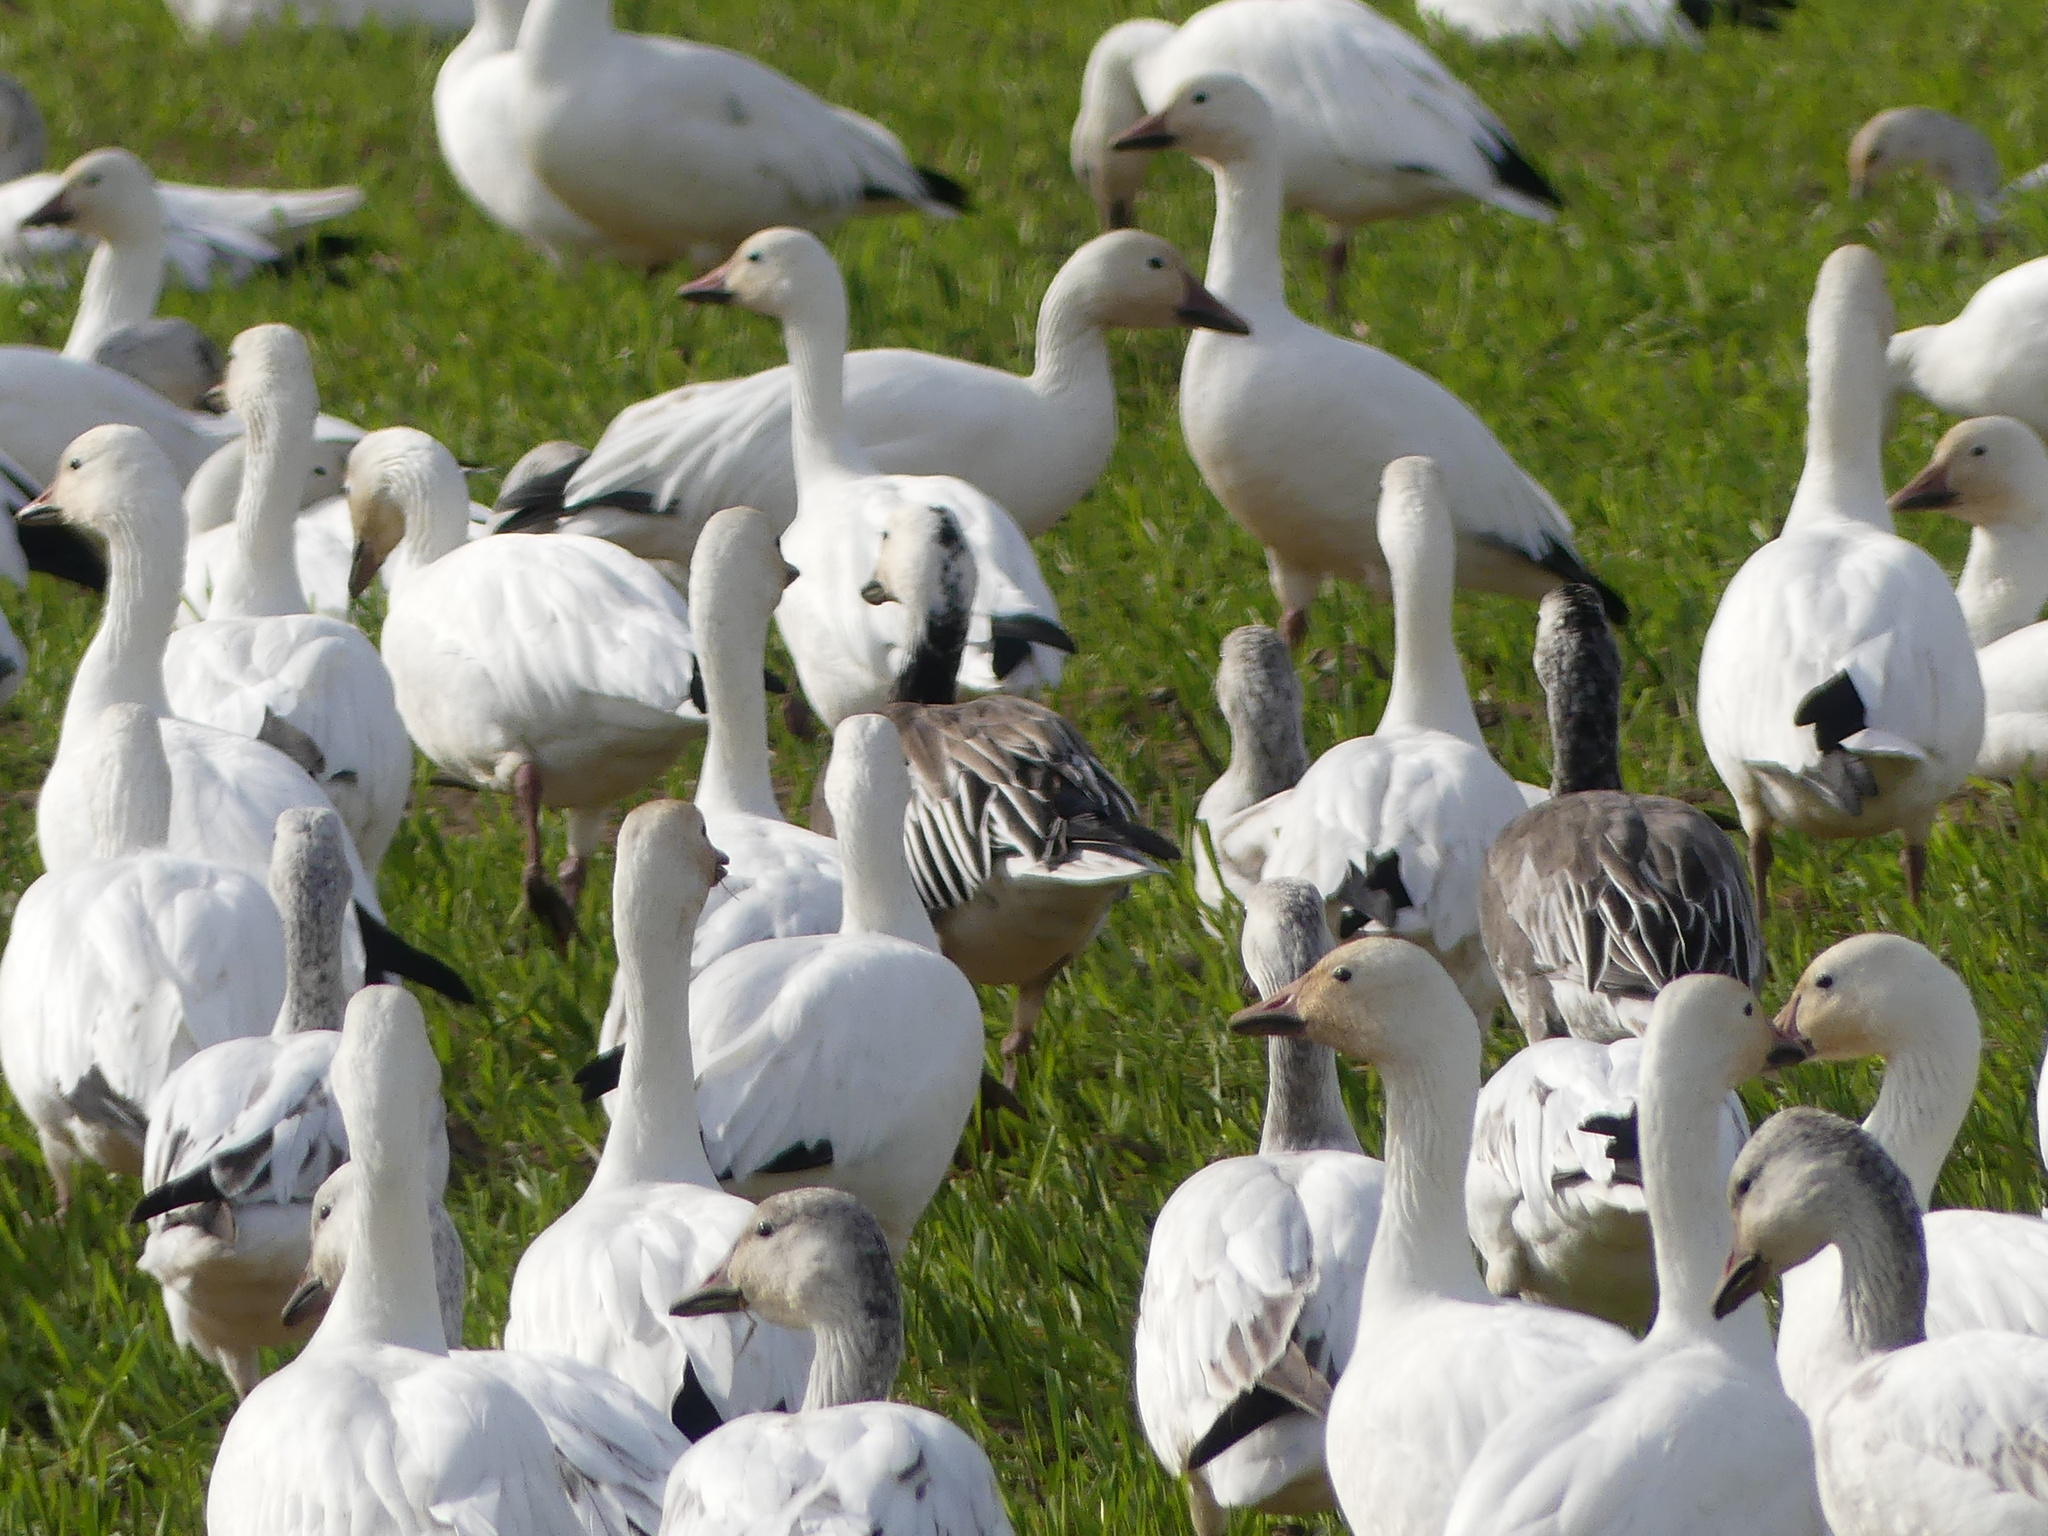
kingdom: Animalia
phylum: Chordata
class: Aves
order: Anseriformes
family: Anatidae
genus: Anser
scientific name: Anser caerulescens
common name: Snow goose
